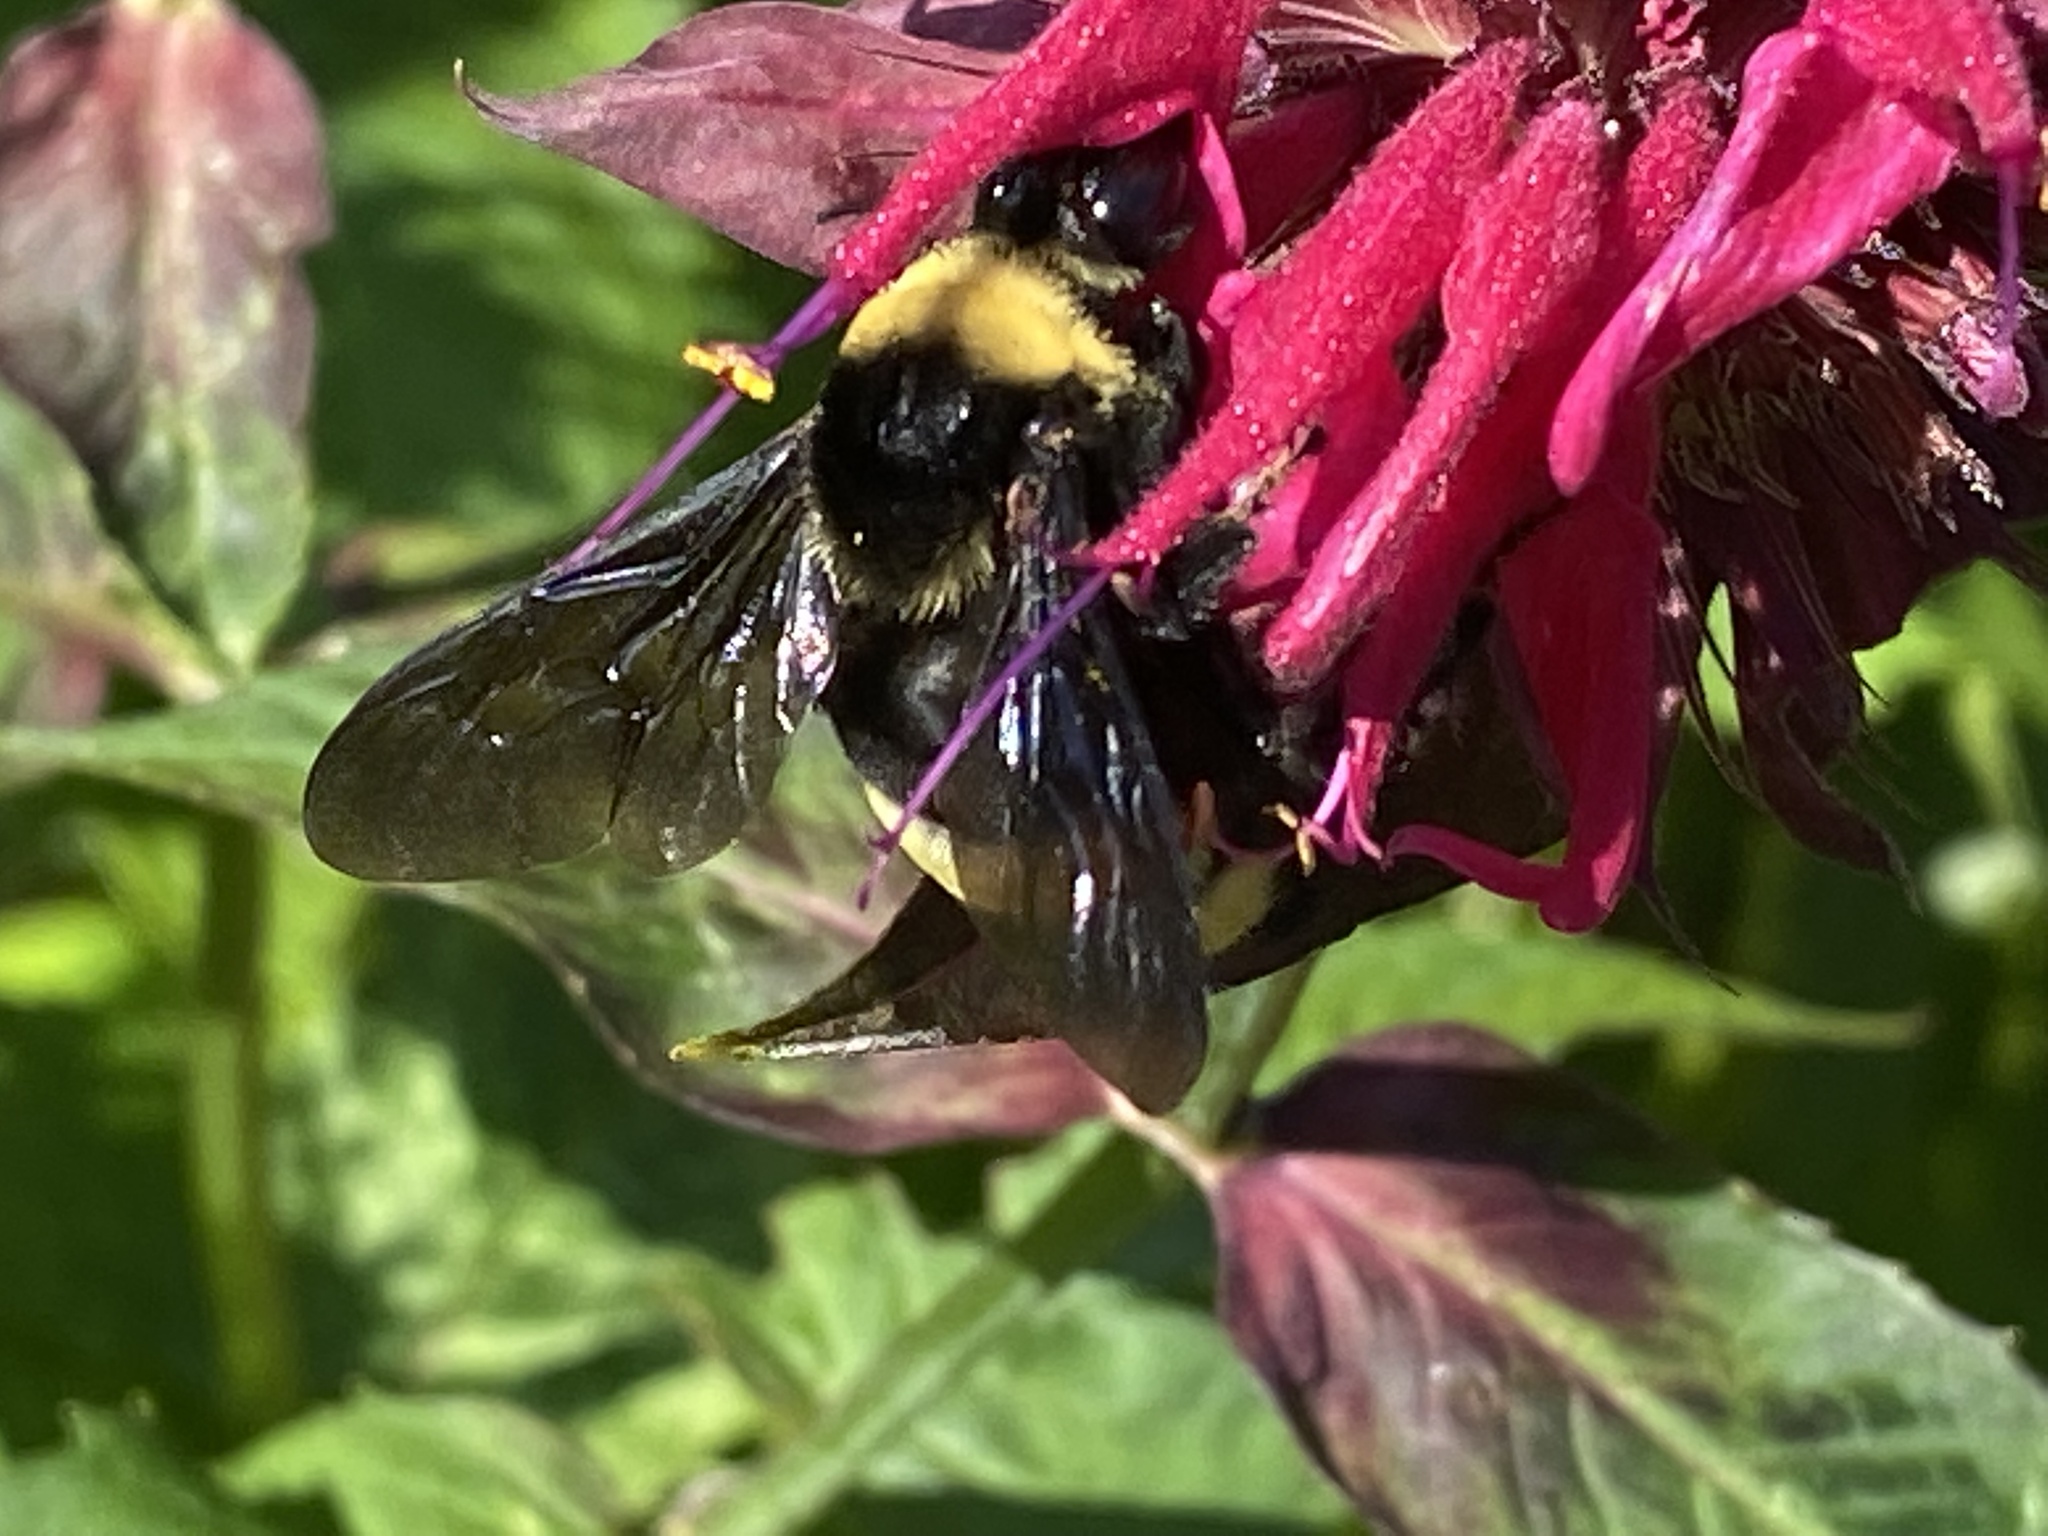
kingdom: Animalia
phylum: Arthropoda
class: Insecta
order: Hymenoptera
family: Apidae
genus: Bombus
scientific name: Bombus auricomus
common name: Black and gold bumble bee
